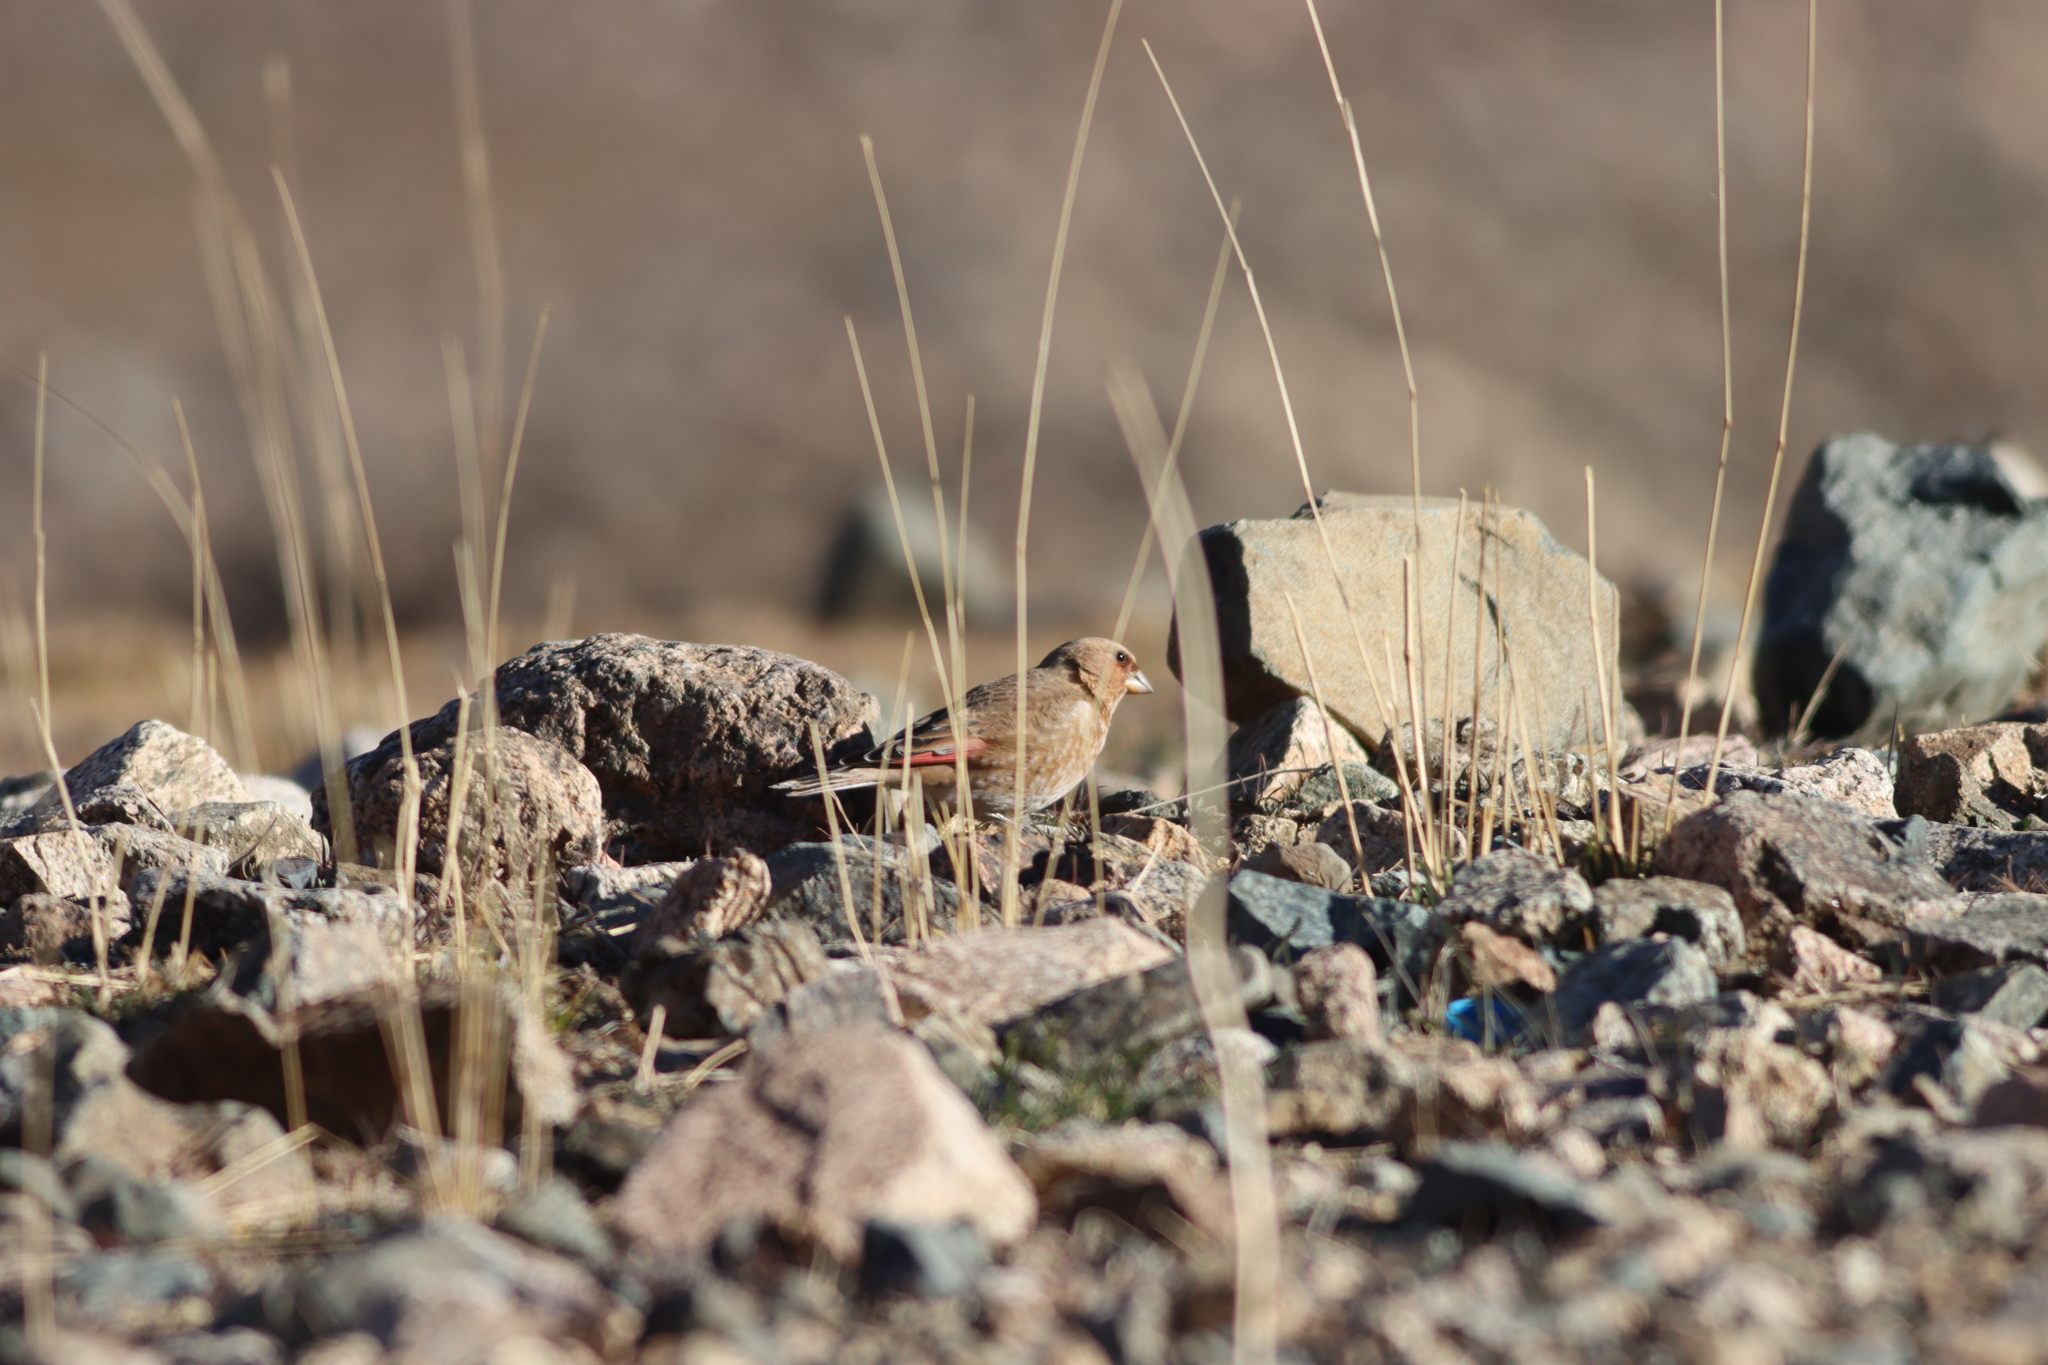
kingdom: Animalia
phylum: Chordata
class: Aves
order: Passeriformes
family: Fringillidae
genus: Rhodopechys
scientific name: Rhodopechys alienus
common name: African crimson-winged finch
